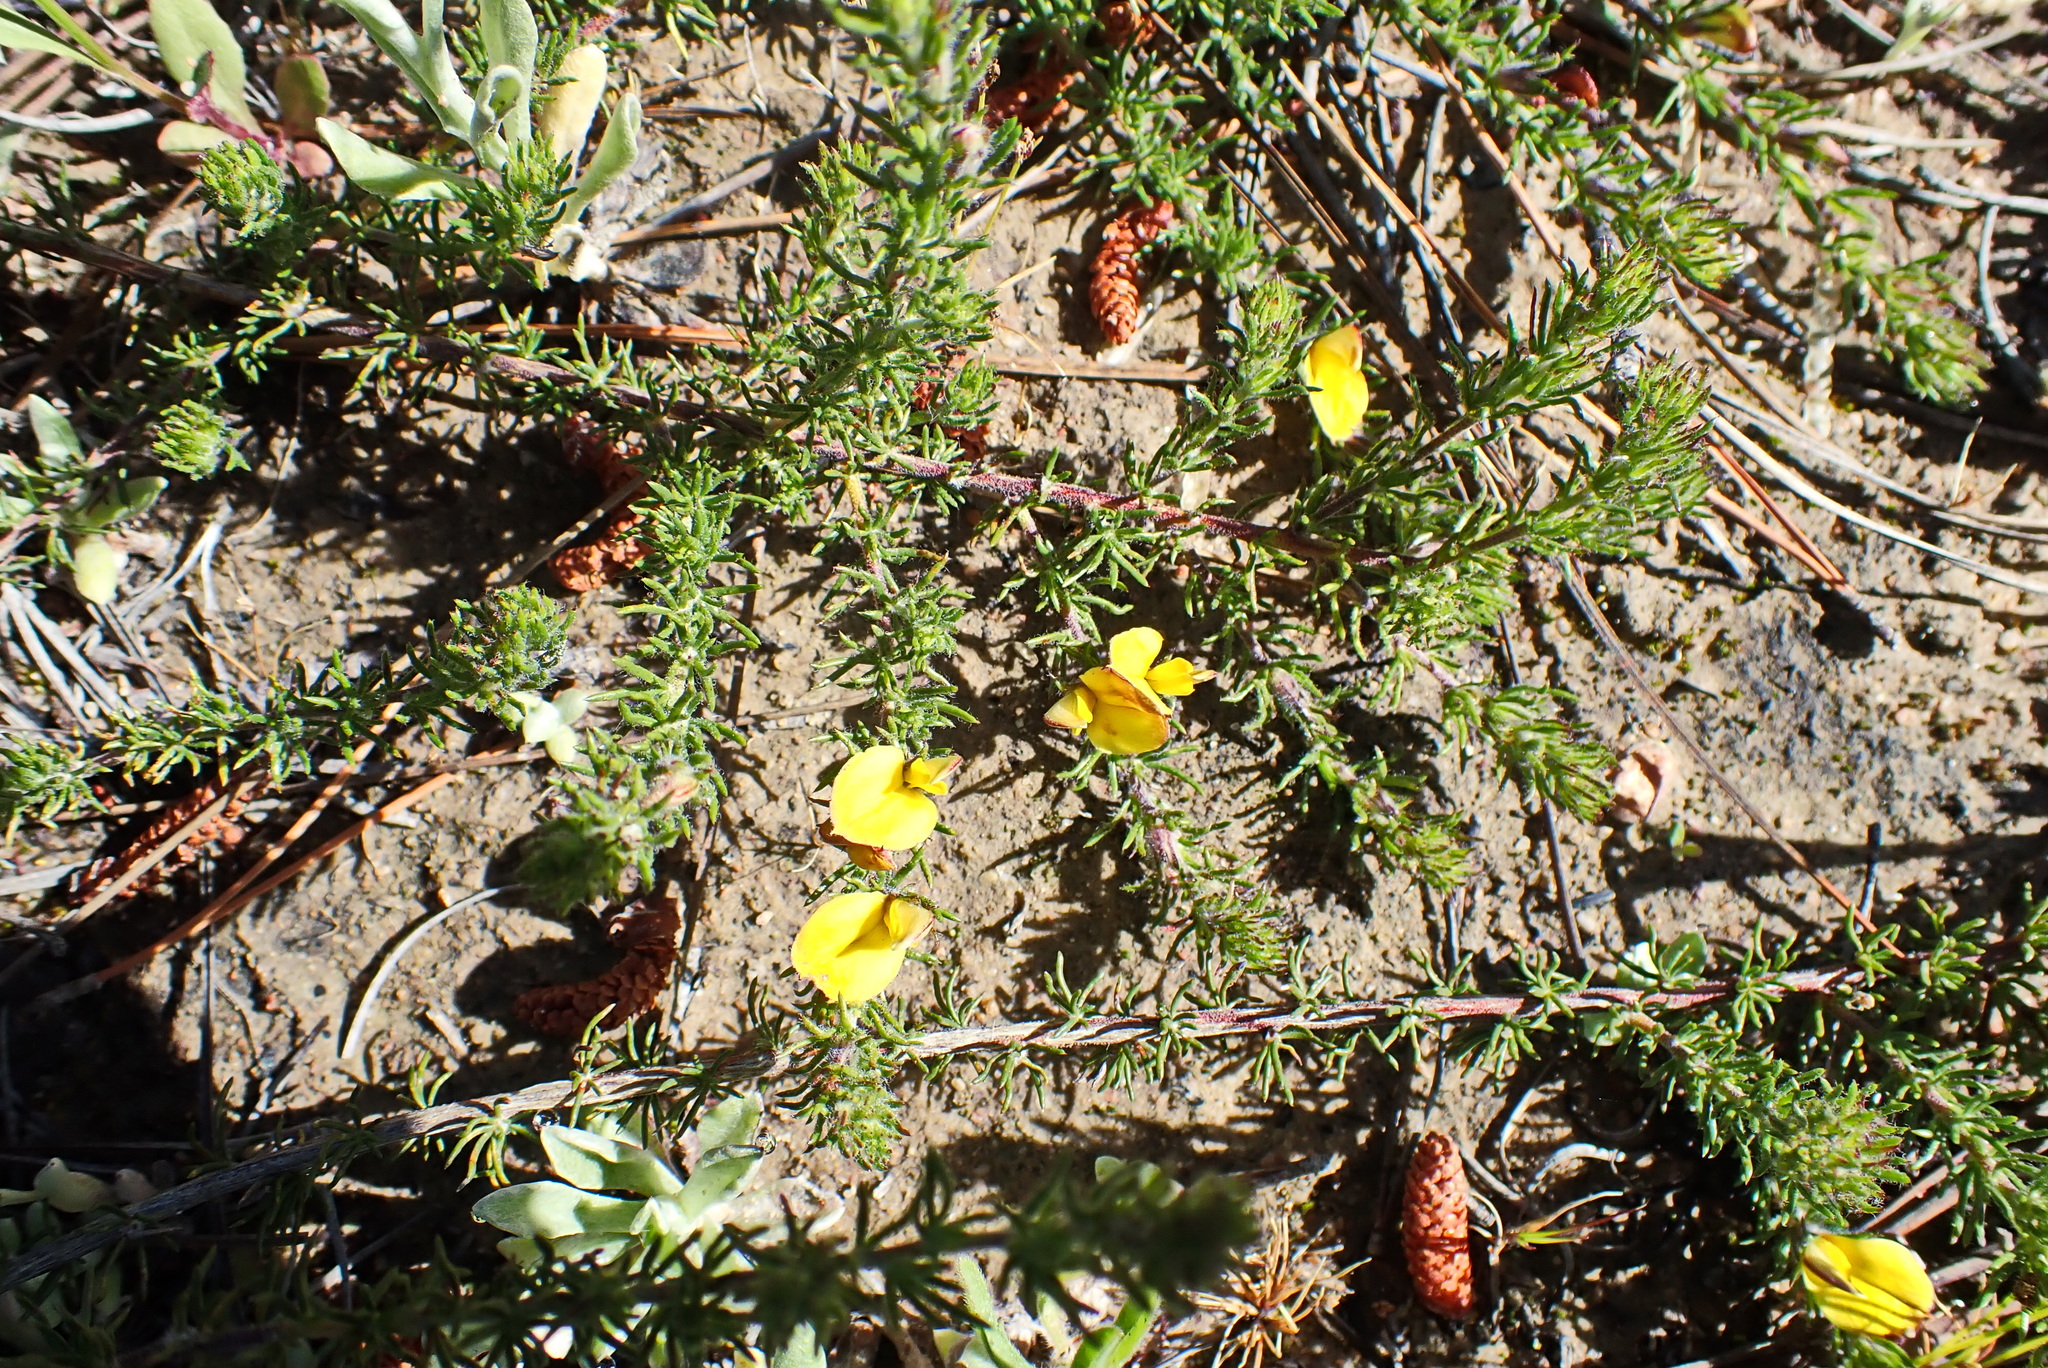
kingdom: Plantae
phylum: Tracheophyta
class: Magnoliopsida
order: Fabales
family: Fabaceae
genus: Aspalathus
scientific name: Aspalathus ciliaris
